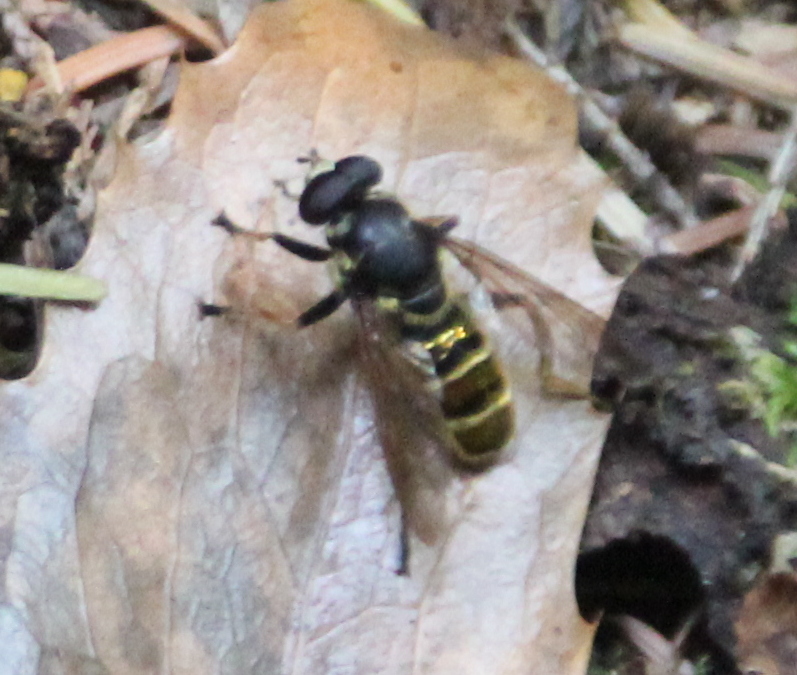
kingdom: Animalia
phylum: Arthropoda
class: Insecta
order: Diptera
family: Syrphidae
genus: Hadromyia
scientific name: Hadromyia pulchra
